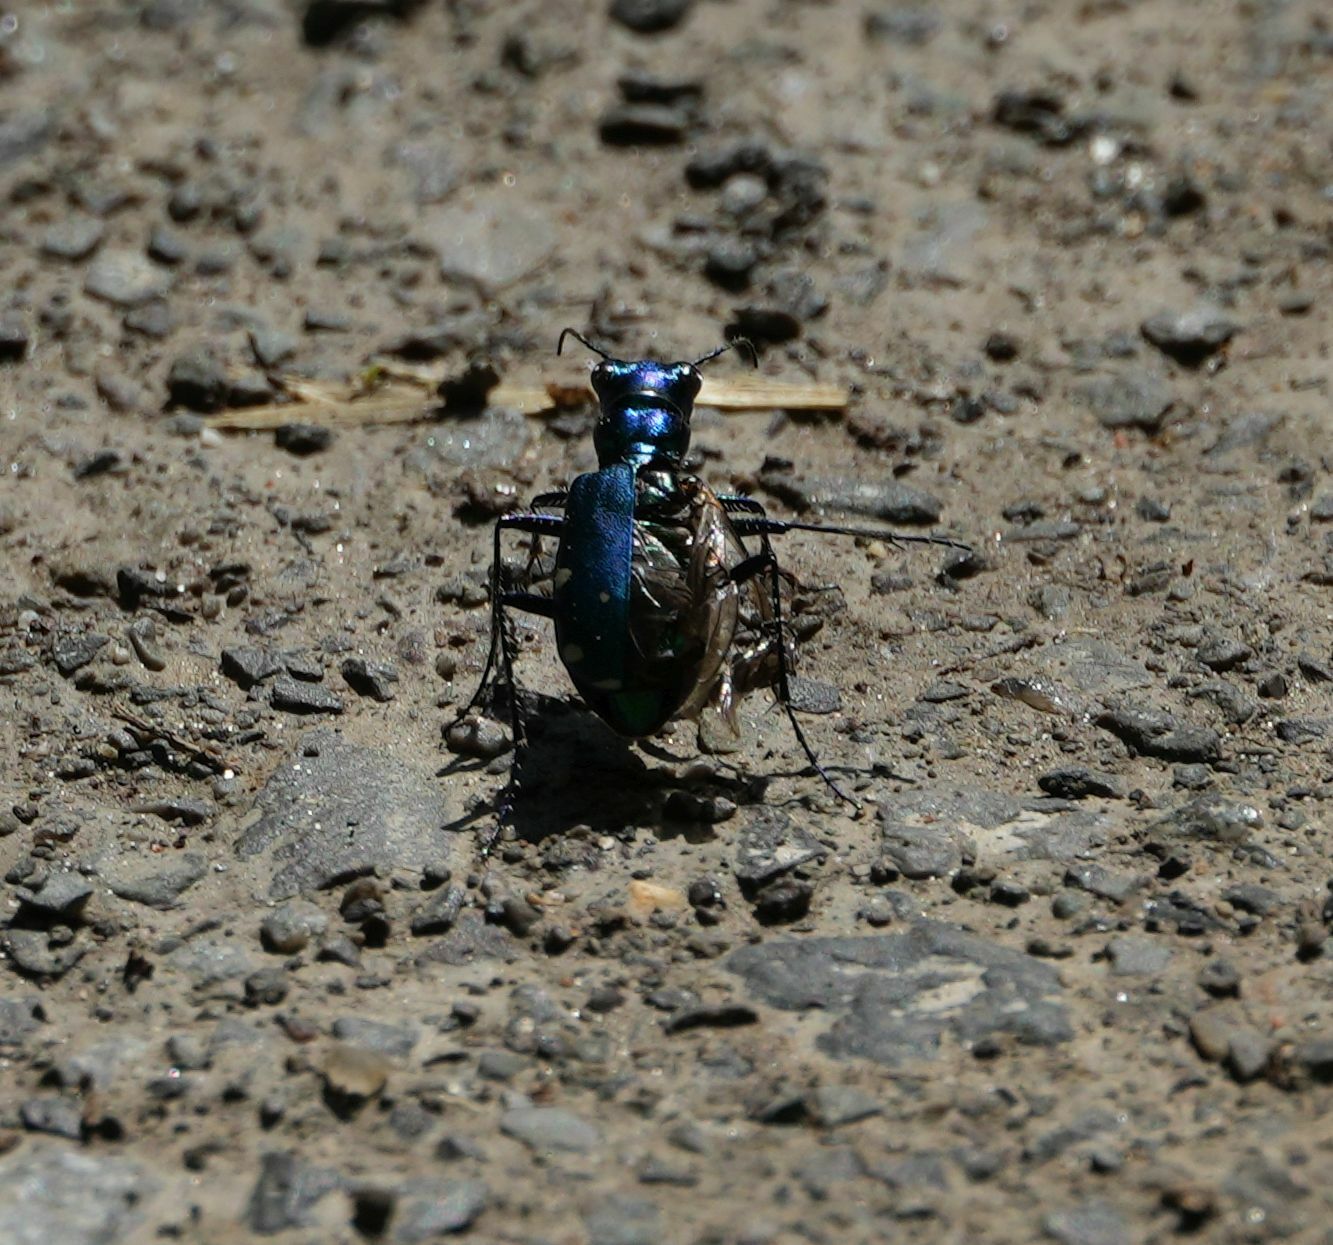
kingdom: Animalia
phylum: Arthropoda
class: Insecta
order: Coleoptera
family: Carabidae
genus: Cicindela
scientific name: Cicindela sexguttata
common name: Six-spotted tiger beetle
